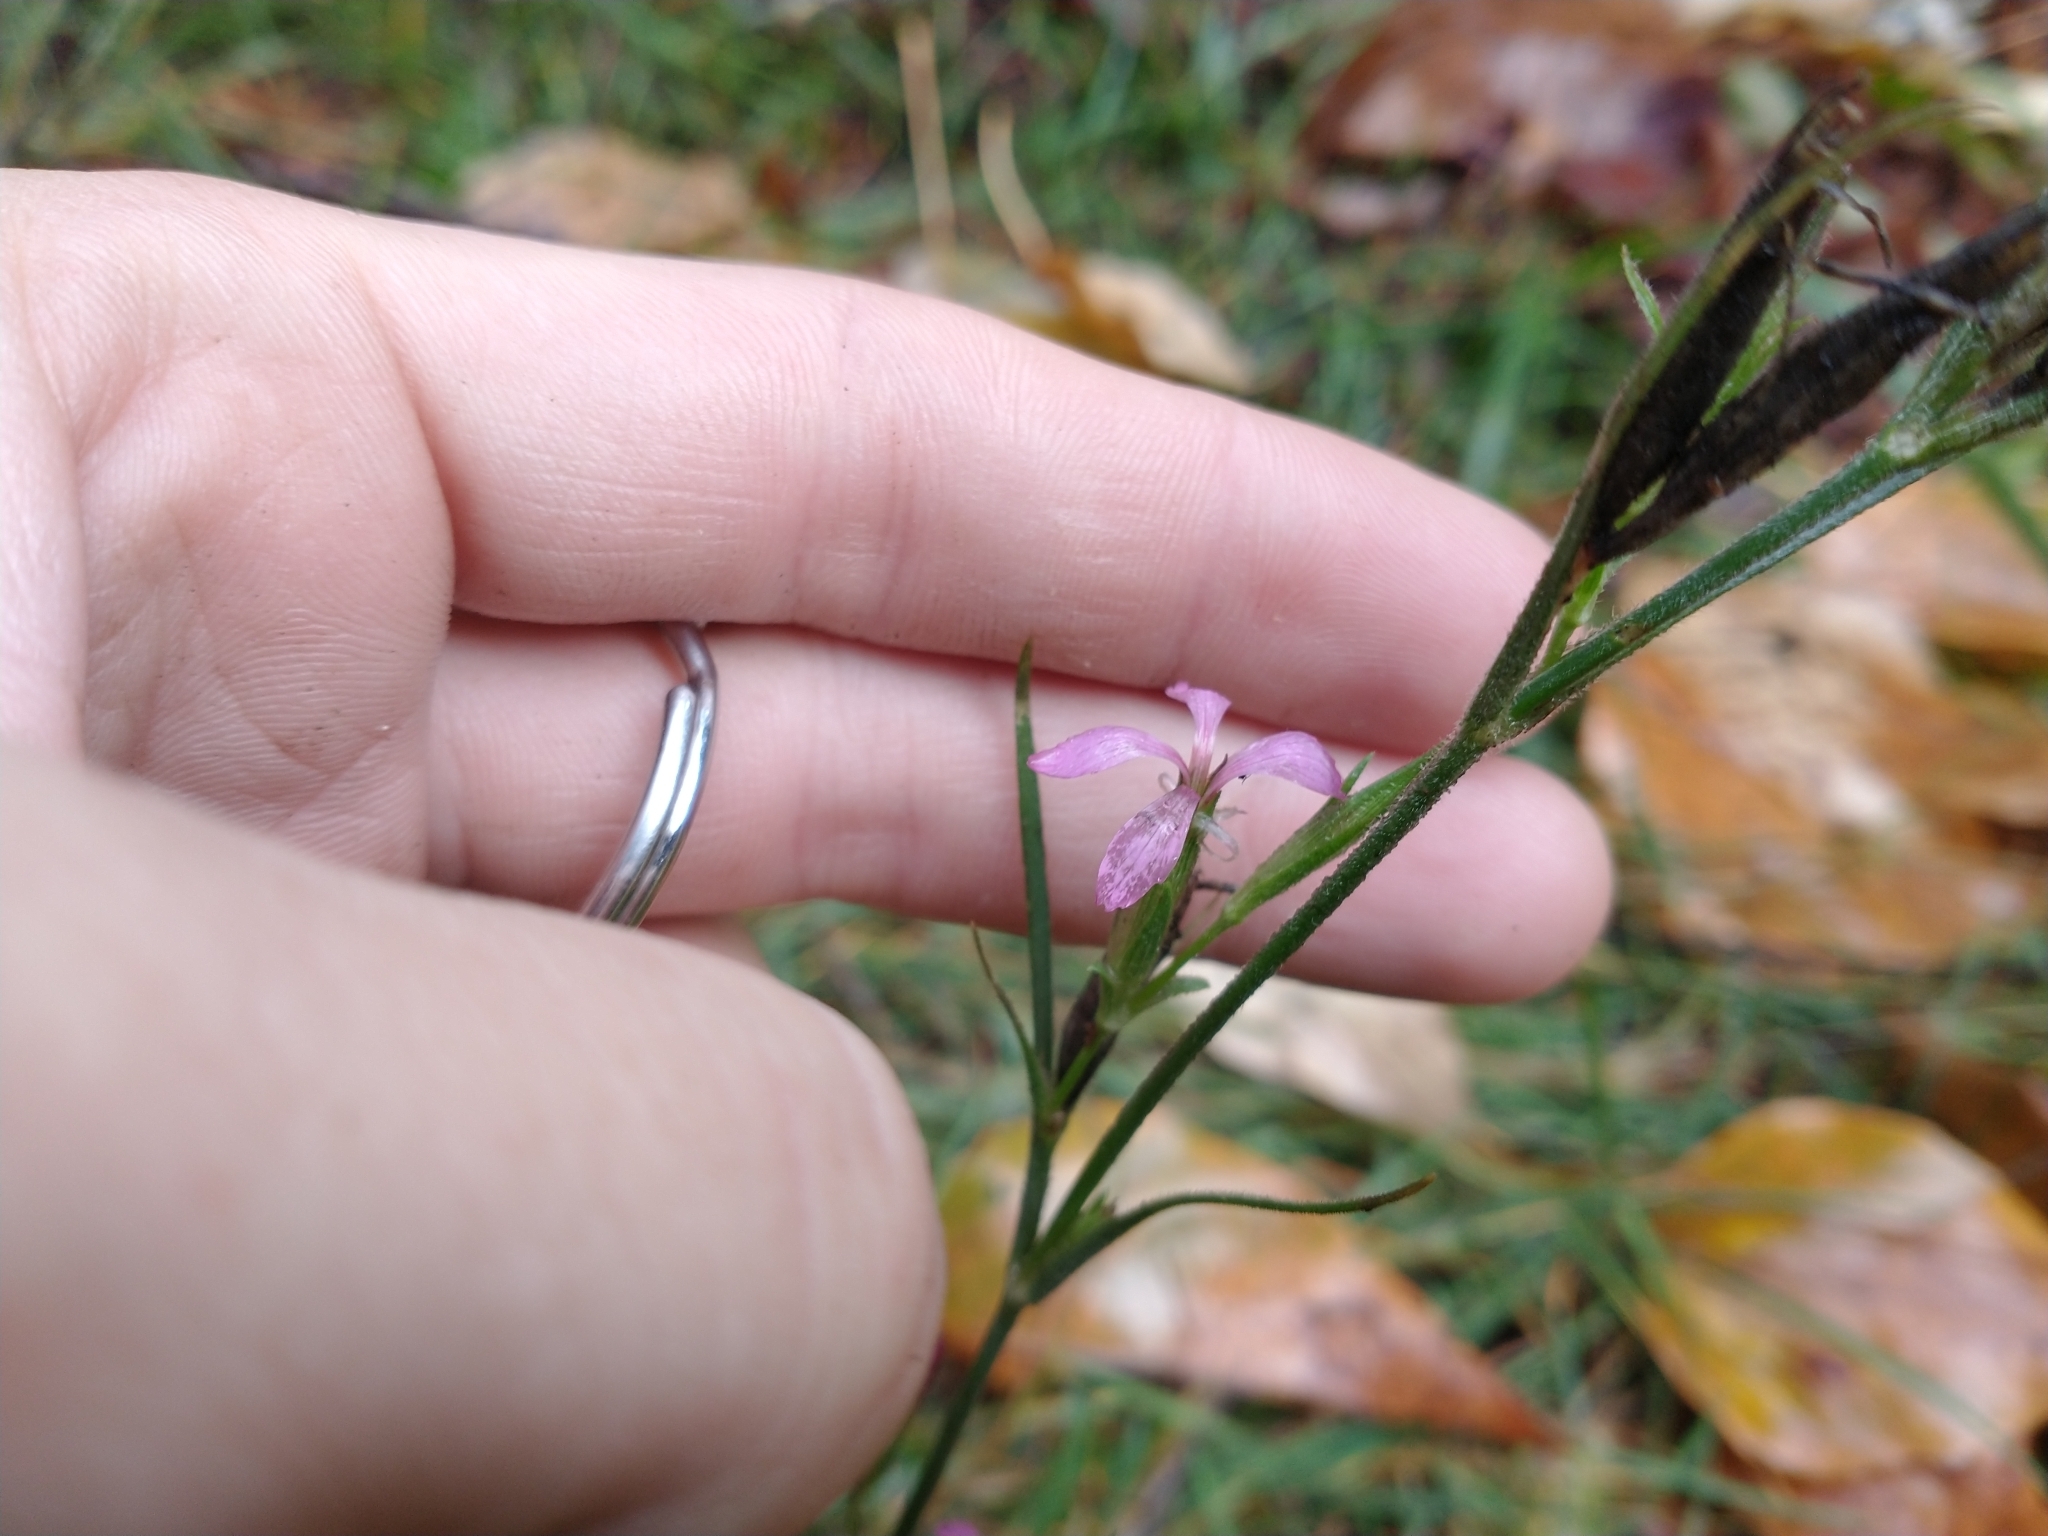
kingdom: Plantae
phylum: Tracheophyta
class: Magnoliopsida
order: Caryophyllales
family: Caryophyllaceae
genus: Dianthus
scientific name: Dianthus armeria
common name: Deptford pink
